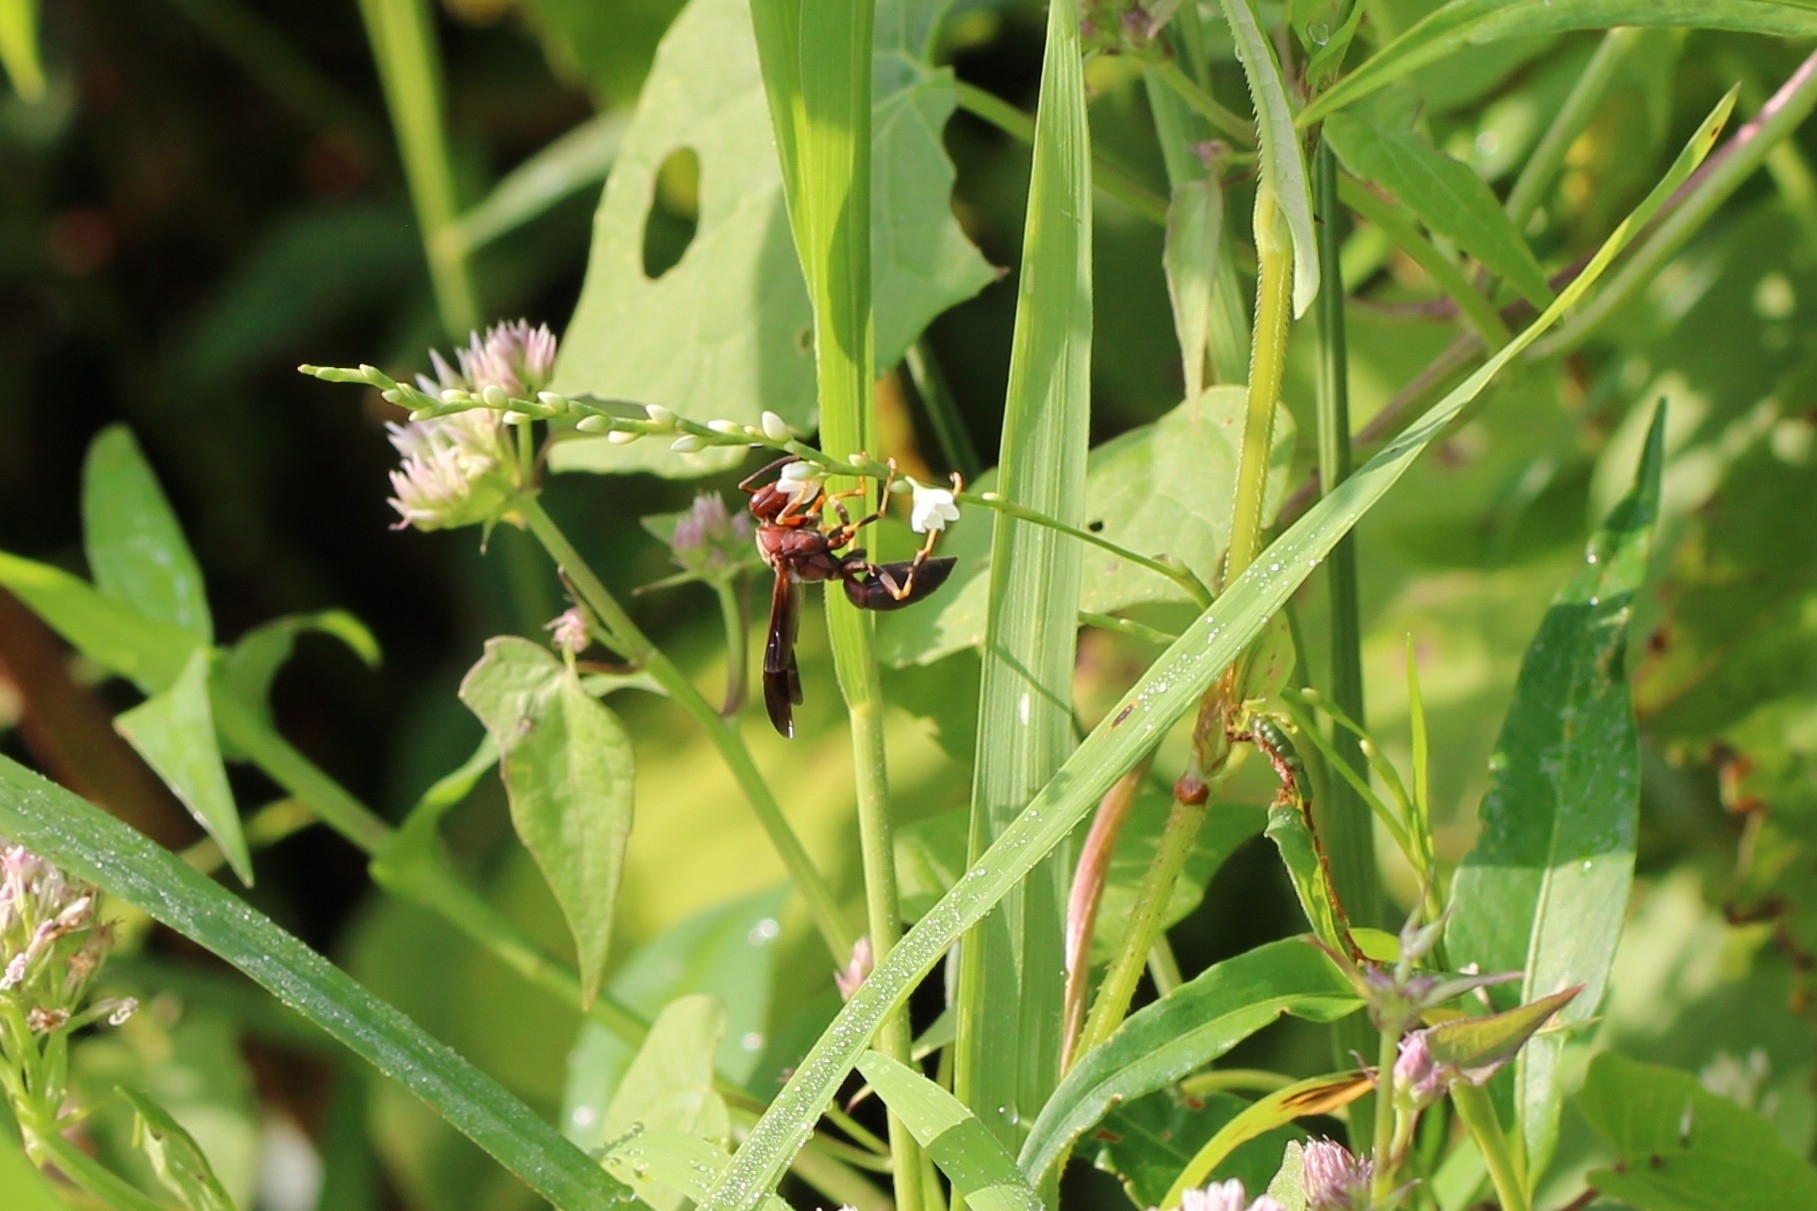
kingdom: Animalia
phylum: Arthropoda
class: Insecta
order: Hymenoptera
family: Eumenidae
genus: Polistes
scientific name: Polistes metricus
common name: Metric paper wasp
